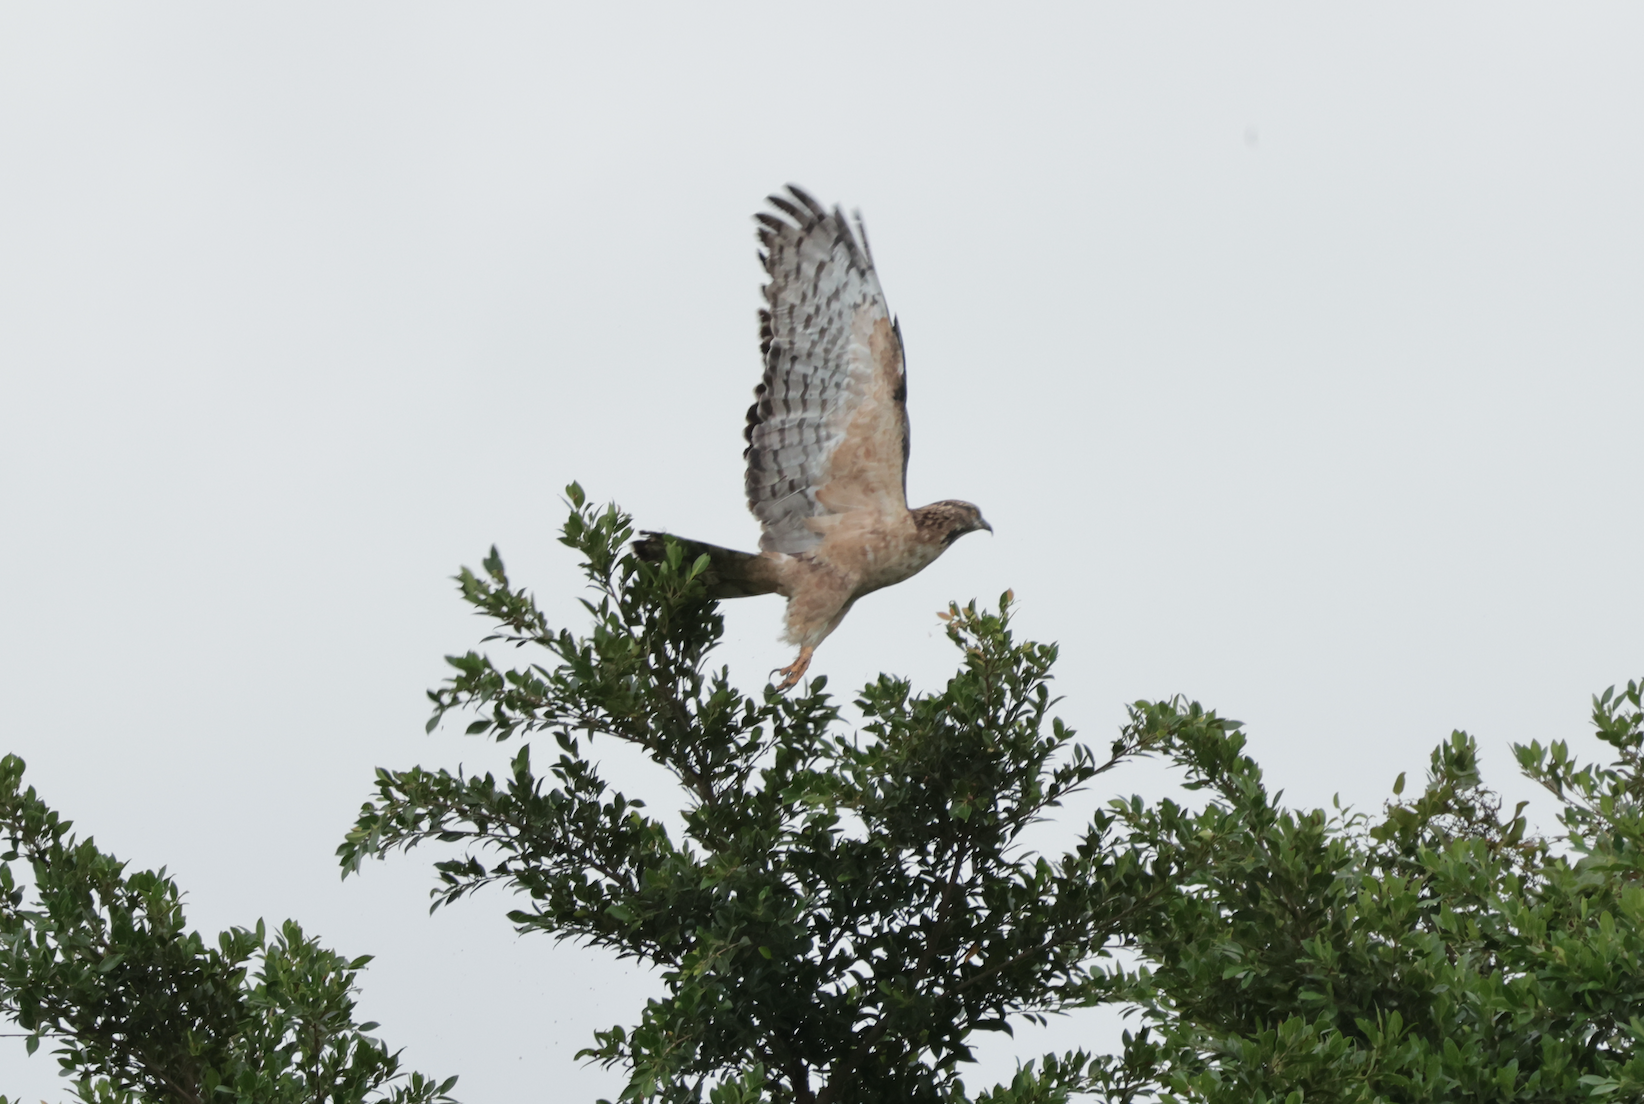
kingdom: Animalia
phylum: Chordata
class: Aves
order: Accipitriformes
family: Accipitridae
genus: Pernis
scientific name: Pernis ptilorhynchus
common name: Crested honey buzzard
